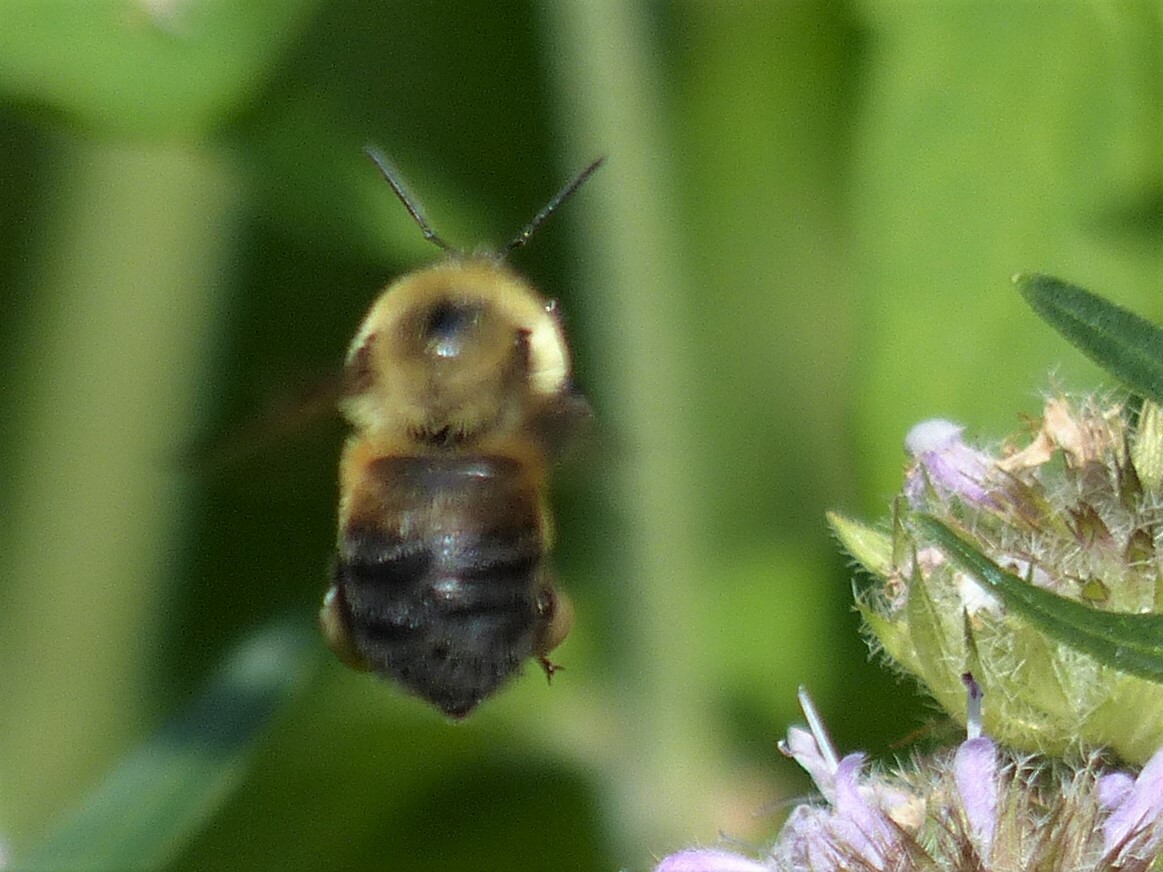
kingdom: Animalia
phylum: Arthropoda
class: Insecta
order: Hymenoptera
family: Apidae
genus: Bombus
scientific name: Bombus griseocollis
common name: Brown-belted bumble bee
